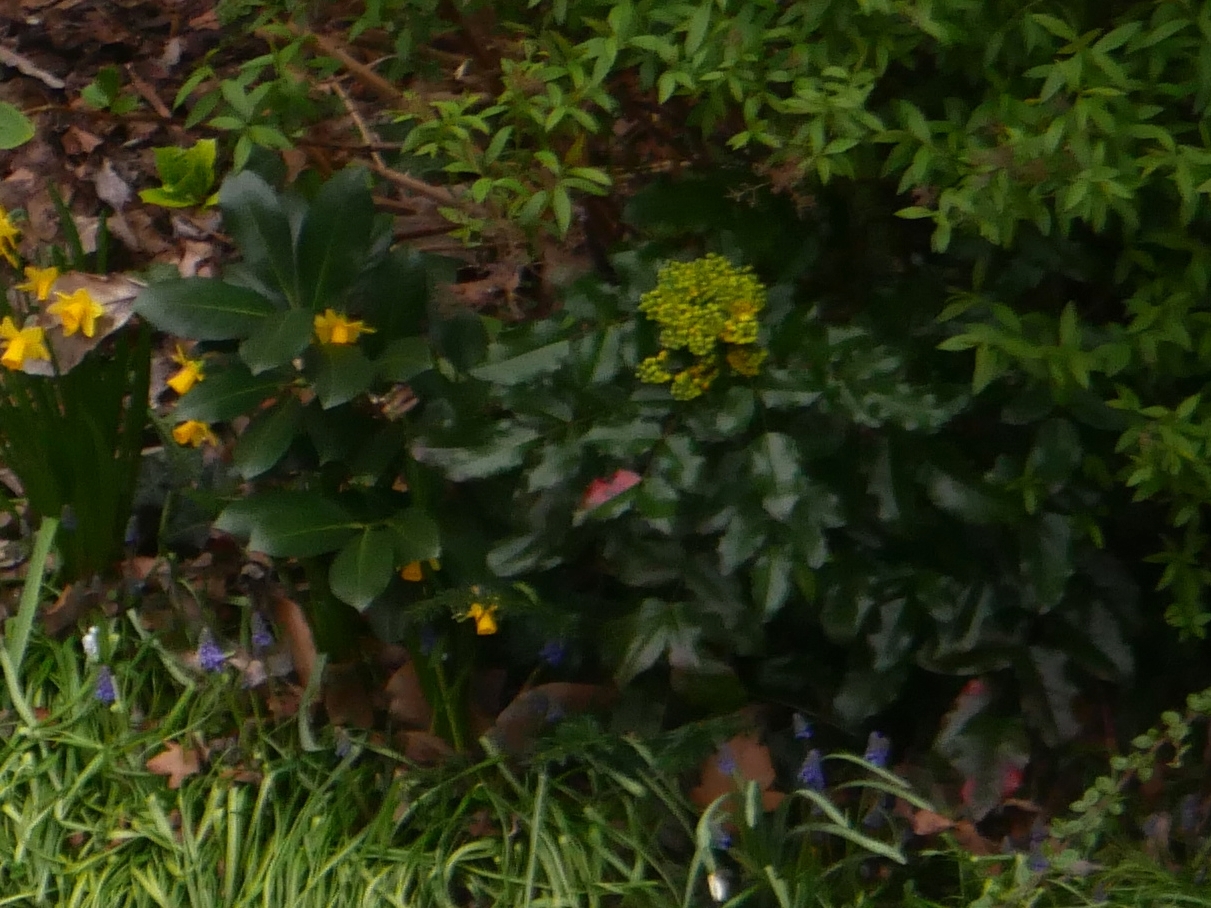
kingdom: Plantae
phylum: Tracheophyta
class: Magnoliopsida
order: Ranunculales
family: Berberidaceae
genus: Mahonia
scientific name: Mahonia aquifolium
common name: Oregon-grape
